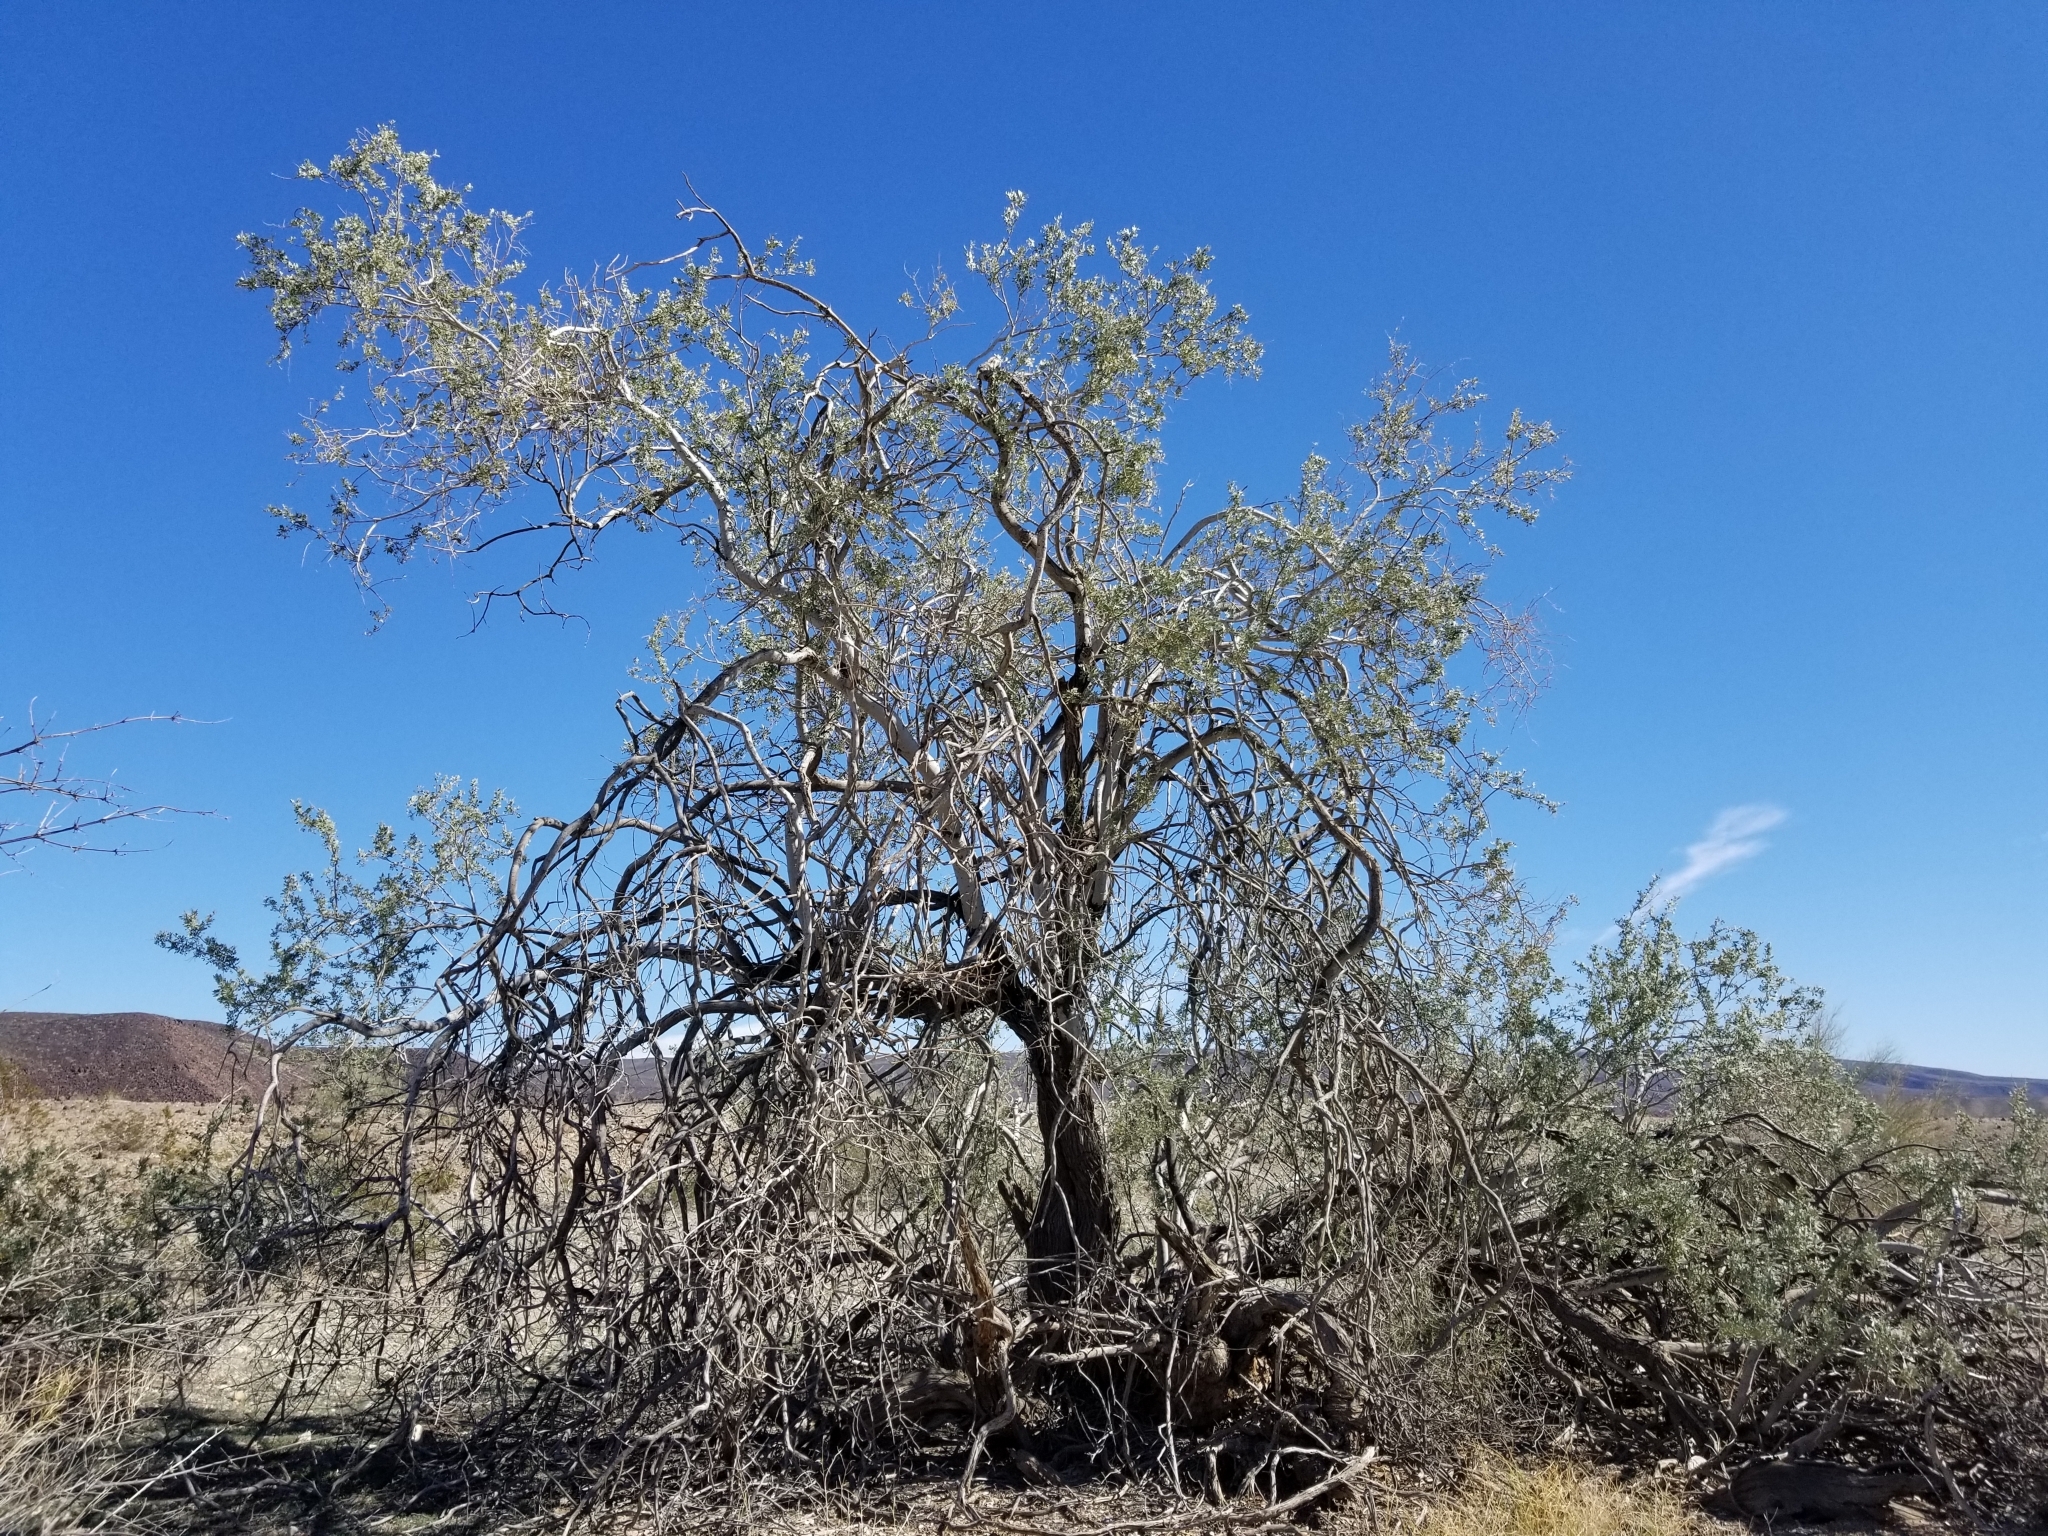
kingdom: Plantae
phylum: Tracheophyta
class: Magnoliopsida
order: Fabales
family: Fabaceae
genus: Olneya
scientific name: Olneya tesota
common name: Desert ironwood
